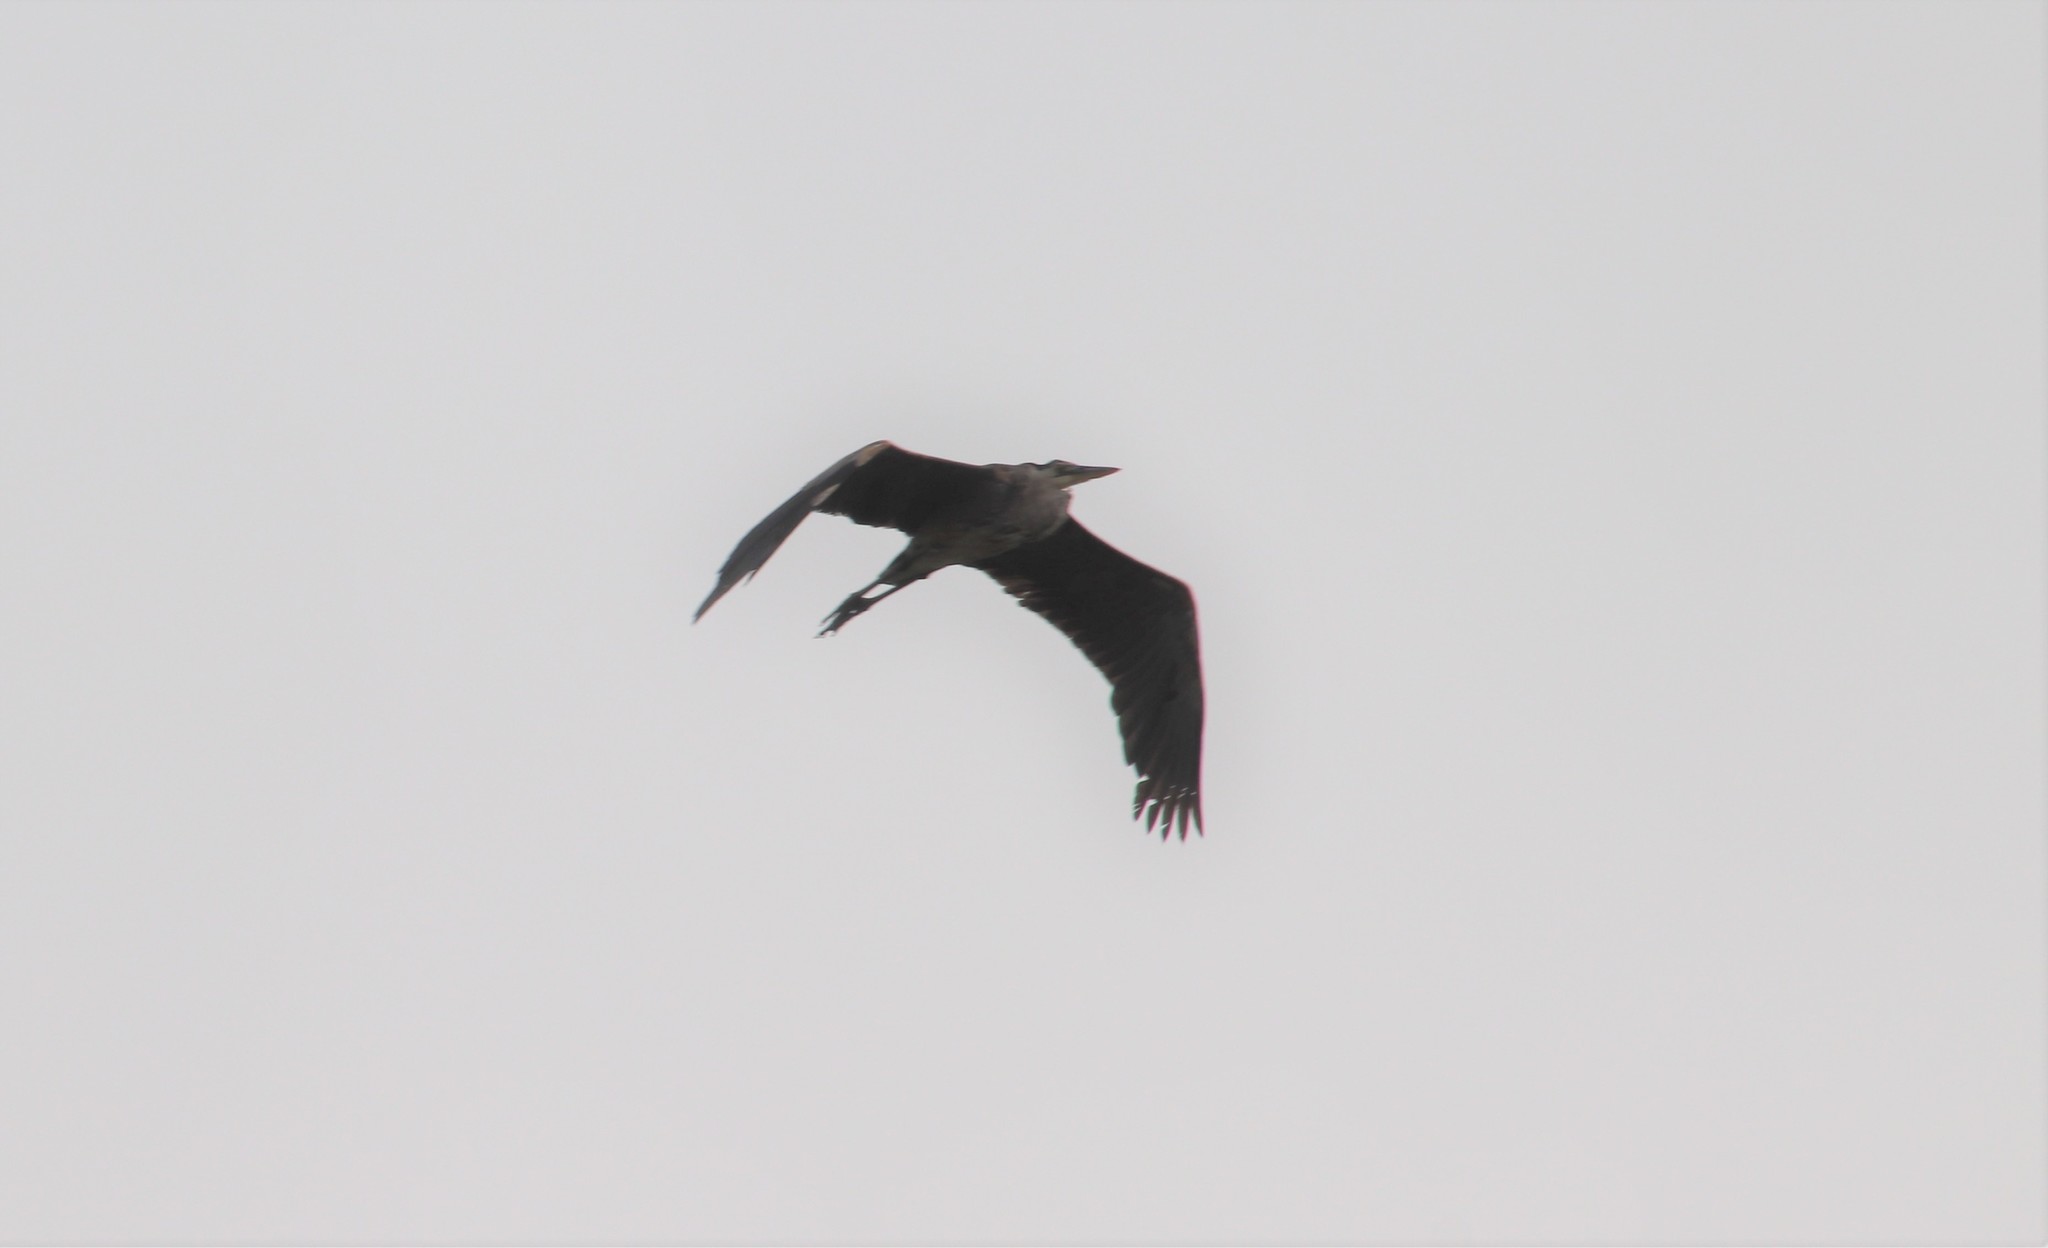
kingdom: Animalia
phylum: Chordata
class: Aves
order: Pelecaniformes
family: Ardeidae
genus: Ardea
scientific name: Ardea herodias
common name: Great blue heron
